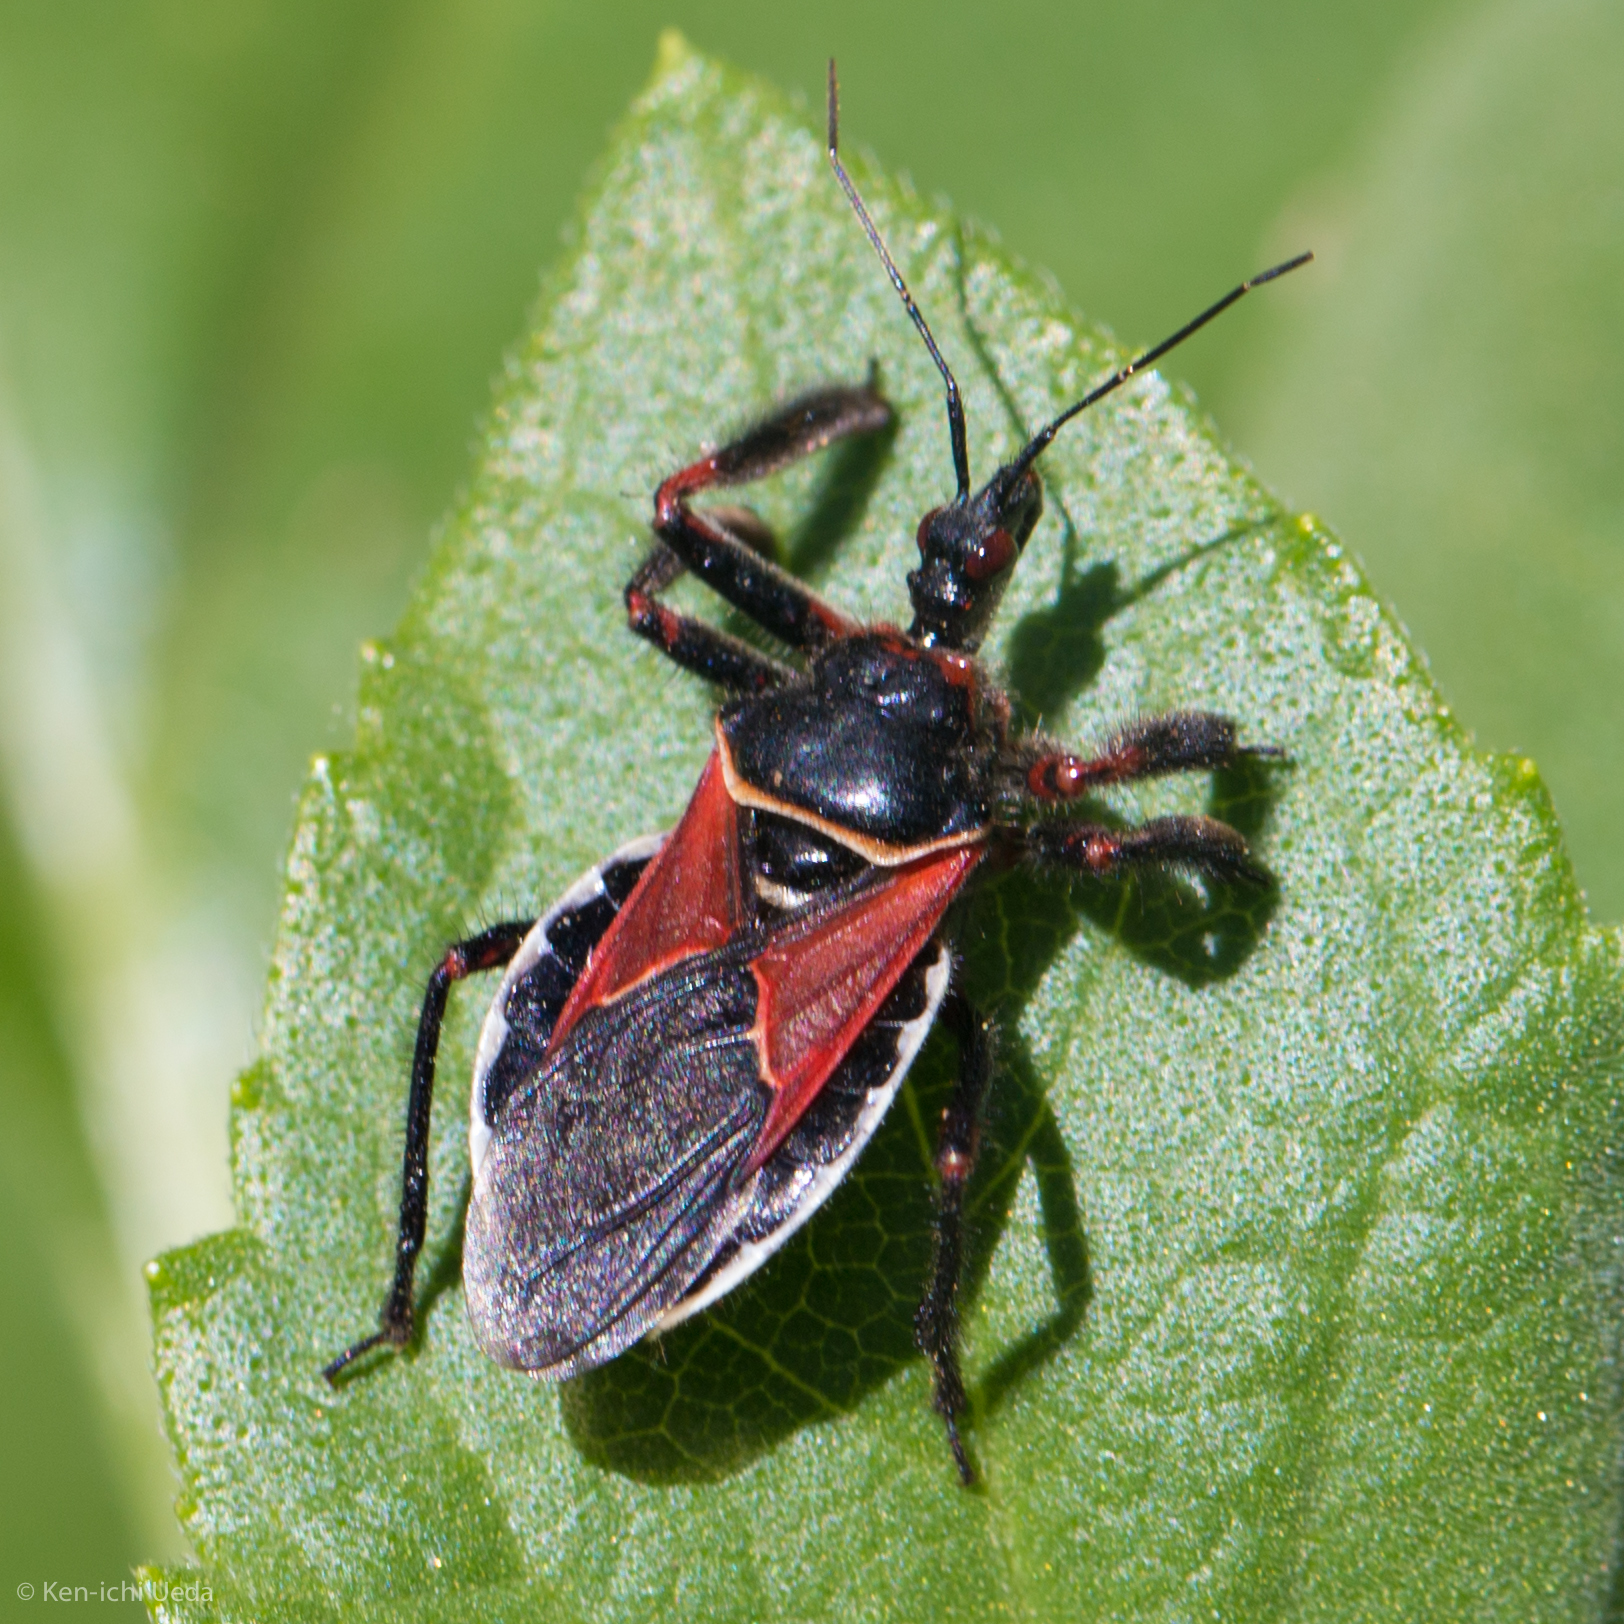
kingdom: Animalia
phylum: Arthropoda
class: Insecta
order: Hemiptera
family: Reduviidae
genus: Apiomerus
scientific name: Apiomerus californicus
